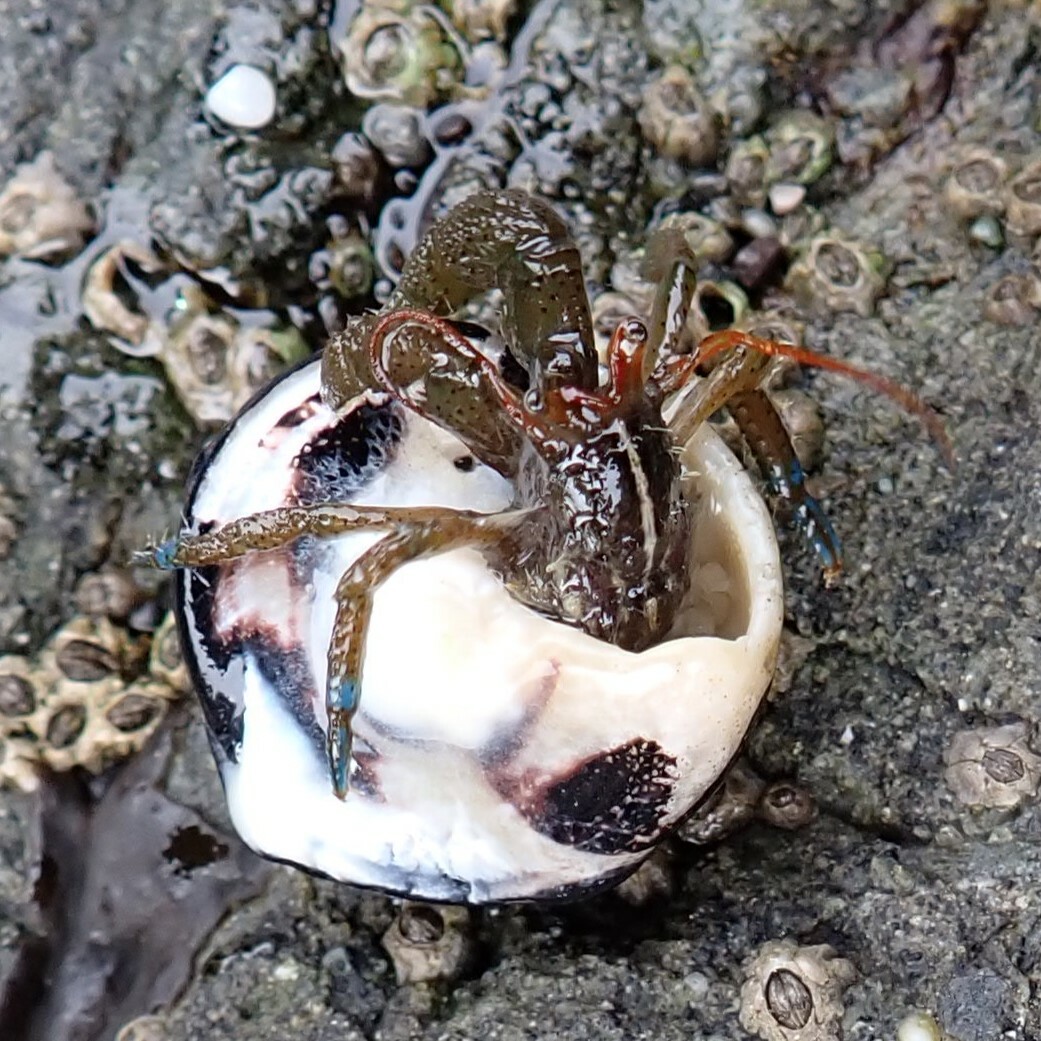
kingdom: Animalia
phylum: Arthropoda
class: Malacostraca
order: Decapoda
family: Paguridae
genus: Pagurus
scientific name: Pagurus samuelis
